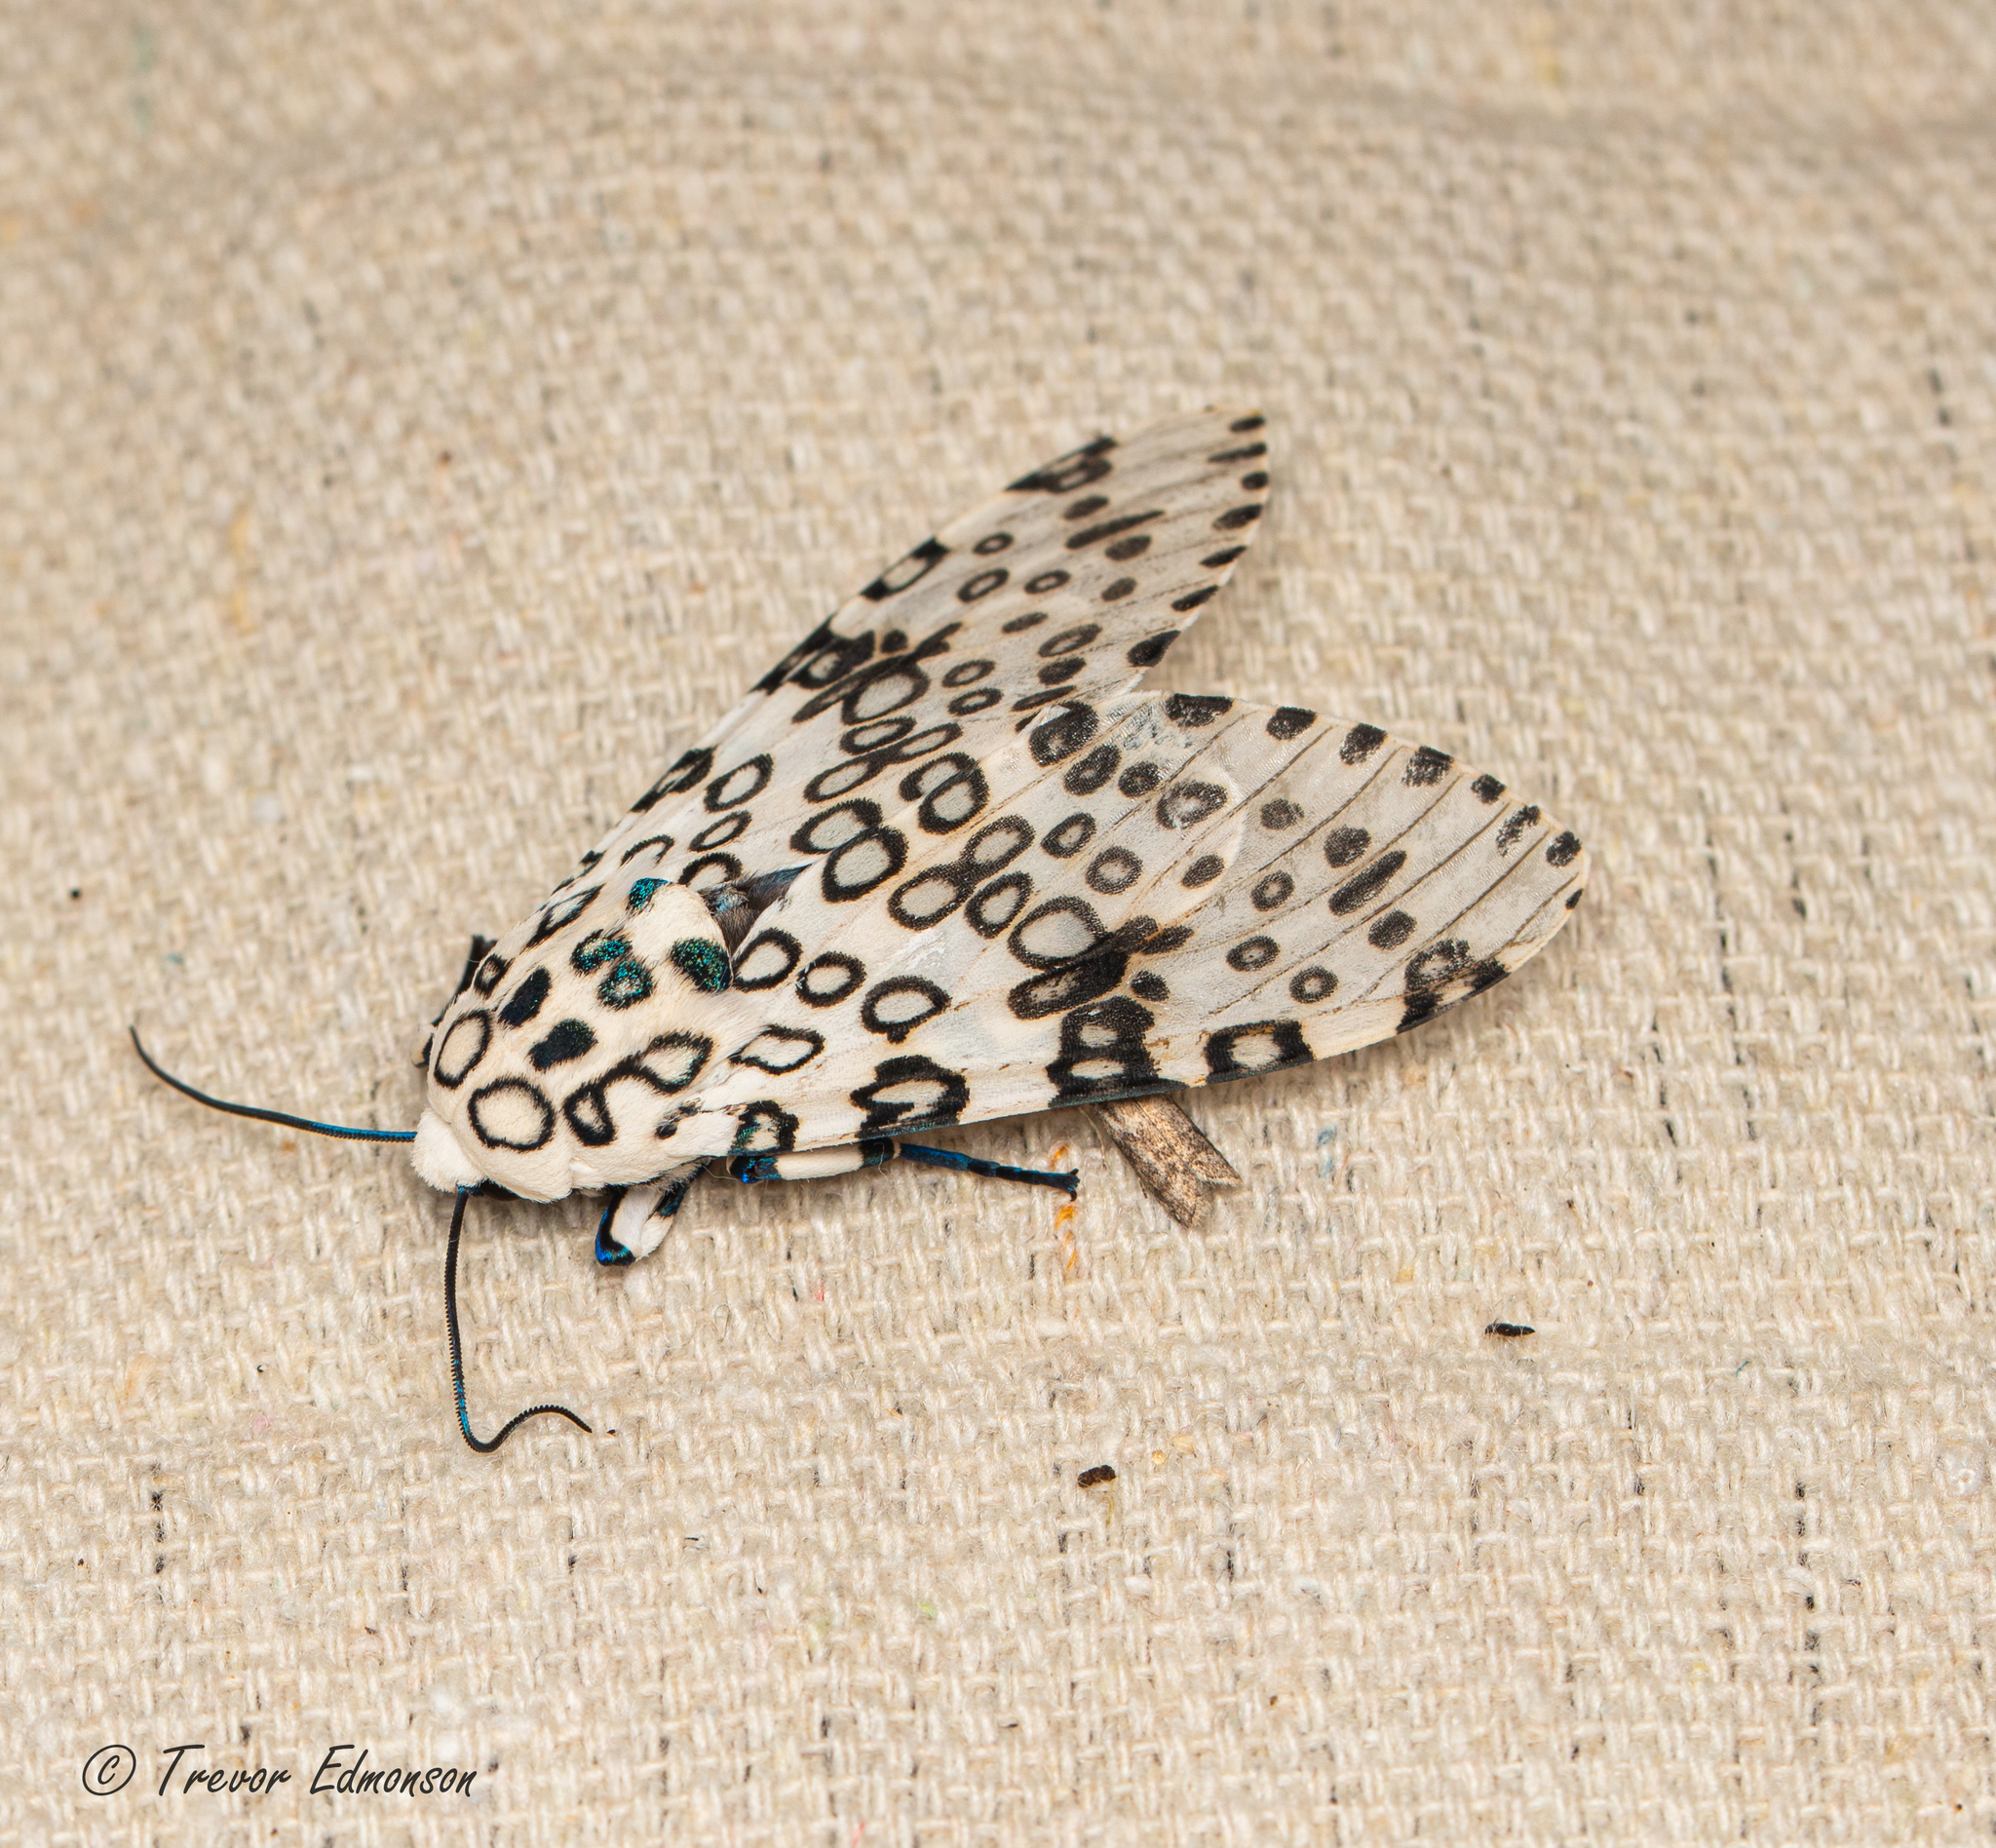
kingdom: Animalia
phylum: Arthropoda
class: Insecta
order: Lepidoptera
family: Erebidae
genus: Hypercompe
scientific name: Hypercompe scribonia
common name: Giant leopard moth
